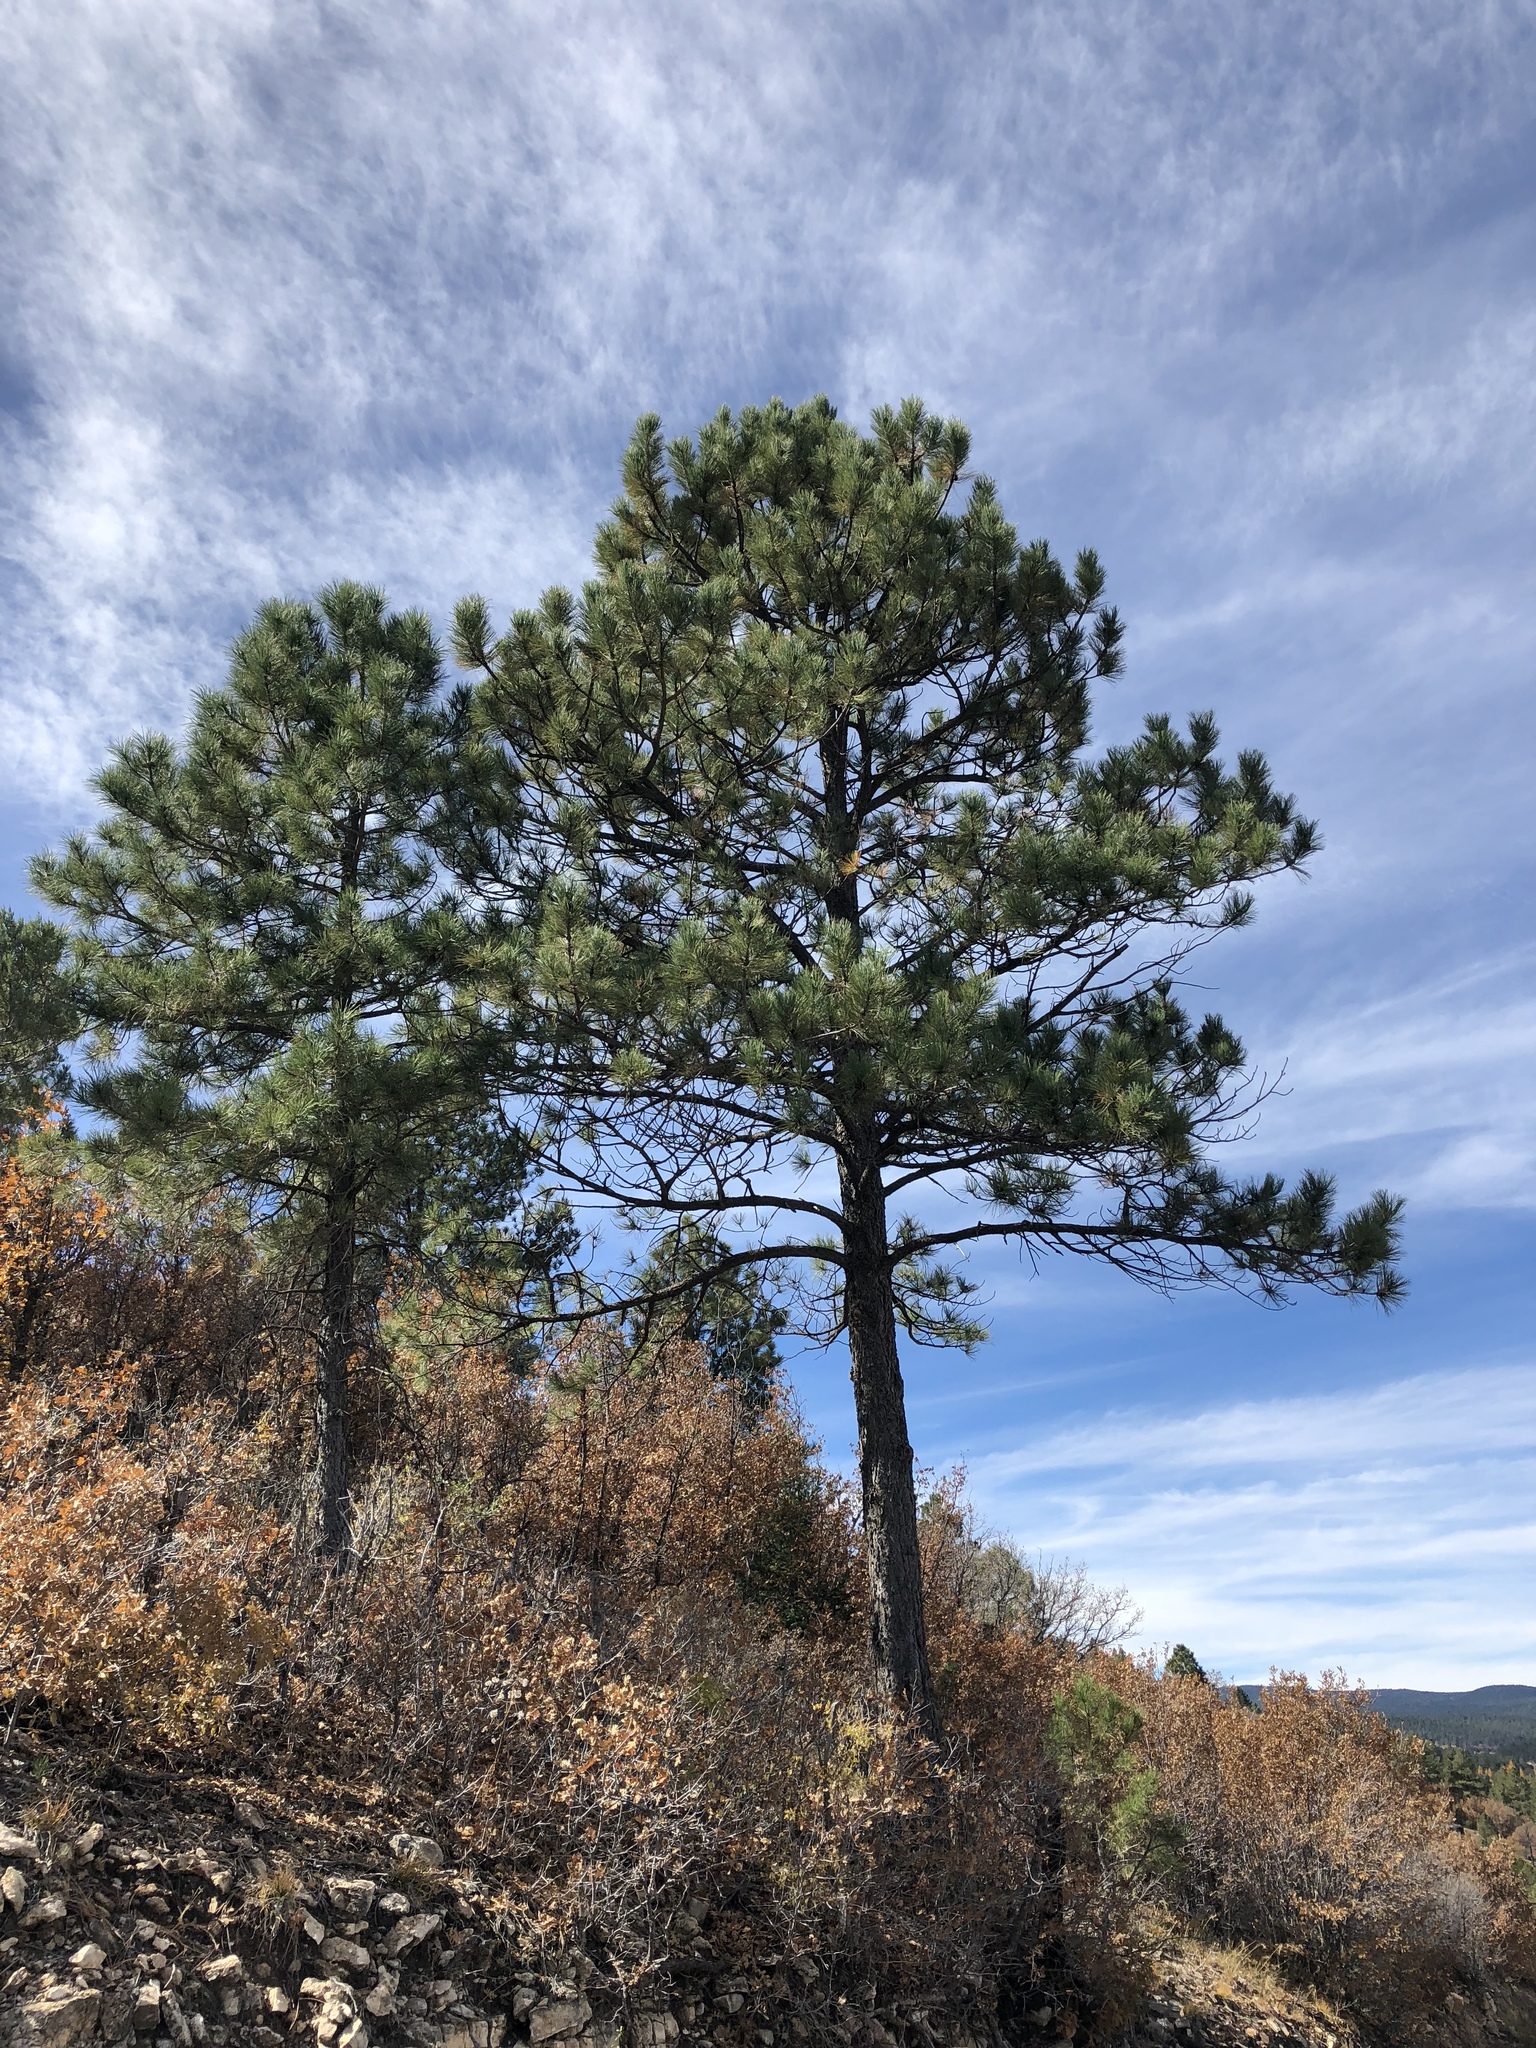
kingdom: Plantae
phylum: Tracheophyta
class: Pinopsida
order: Pinales
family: Pinaceae
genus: Pinus
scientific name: Pinus ponderosa
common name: Western yellow-pine
